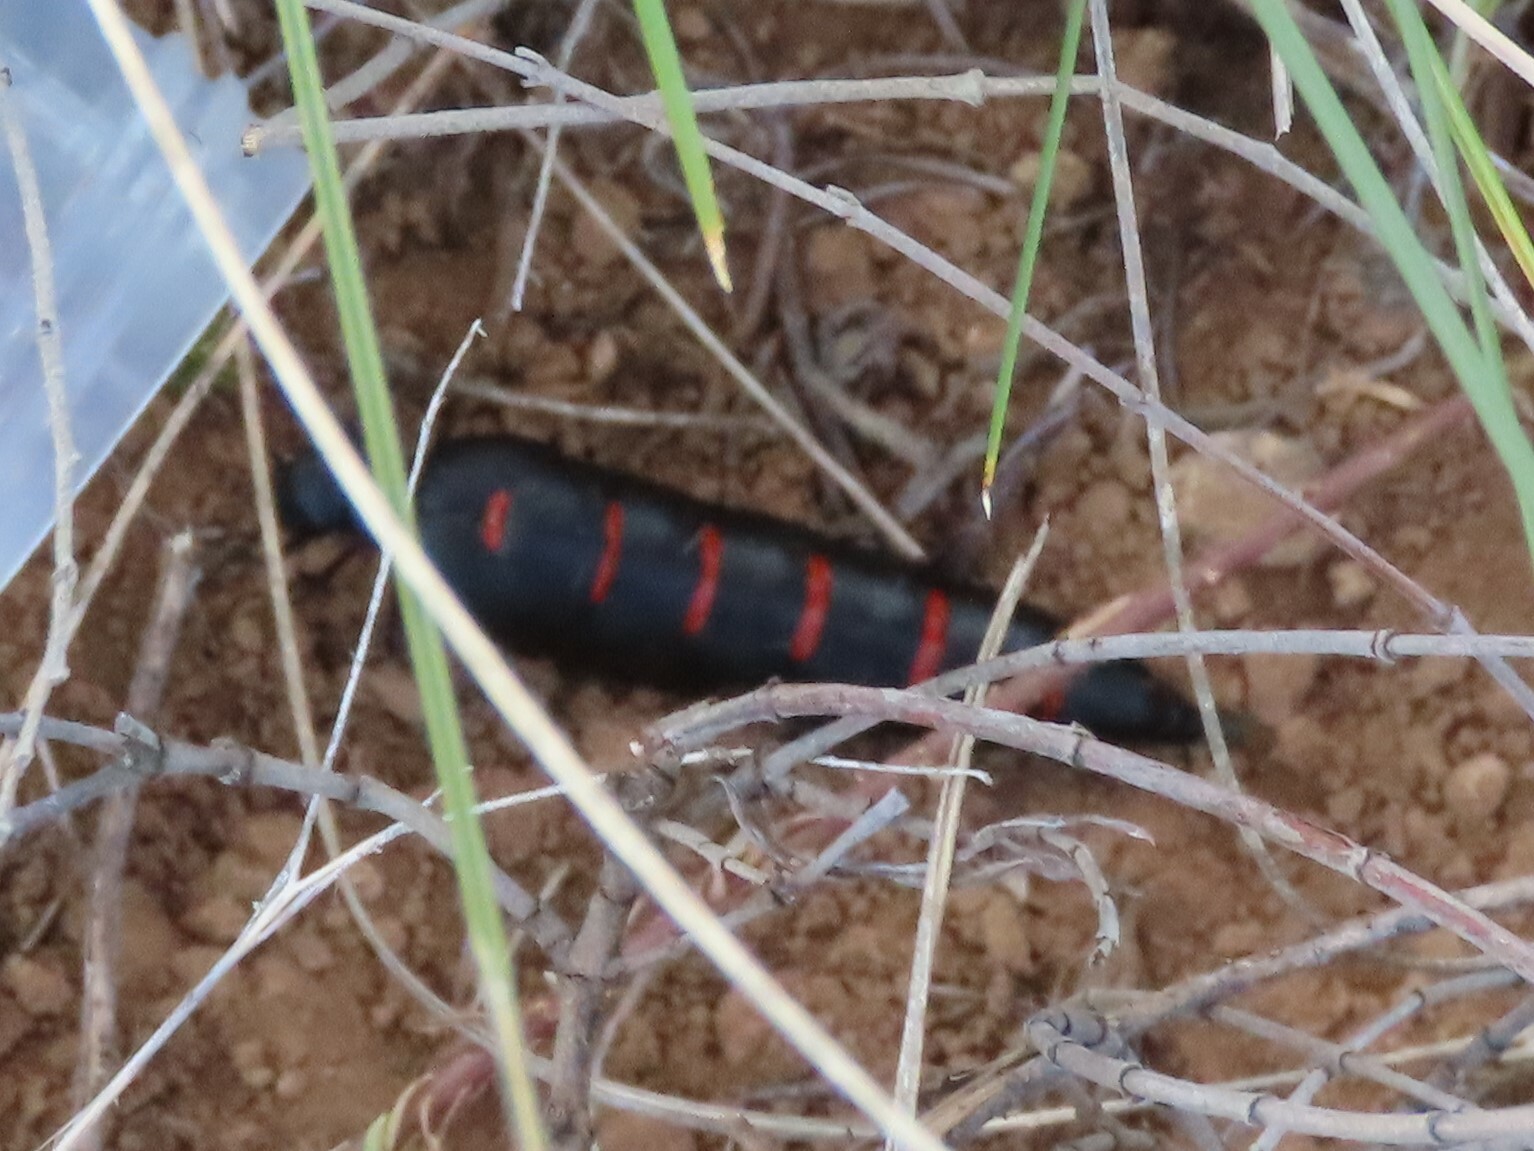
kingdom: Animalia
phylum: Arthropoda
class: Insecta
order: Coleoptera
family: Meloidae
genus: Berberomeloe
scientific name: Berberomeloe majalis
